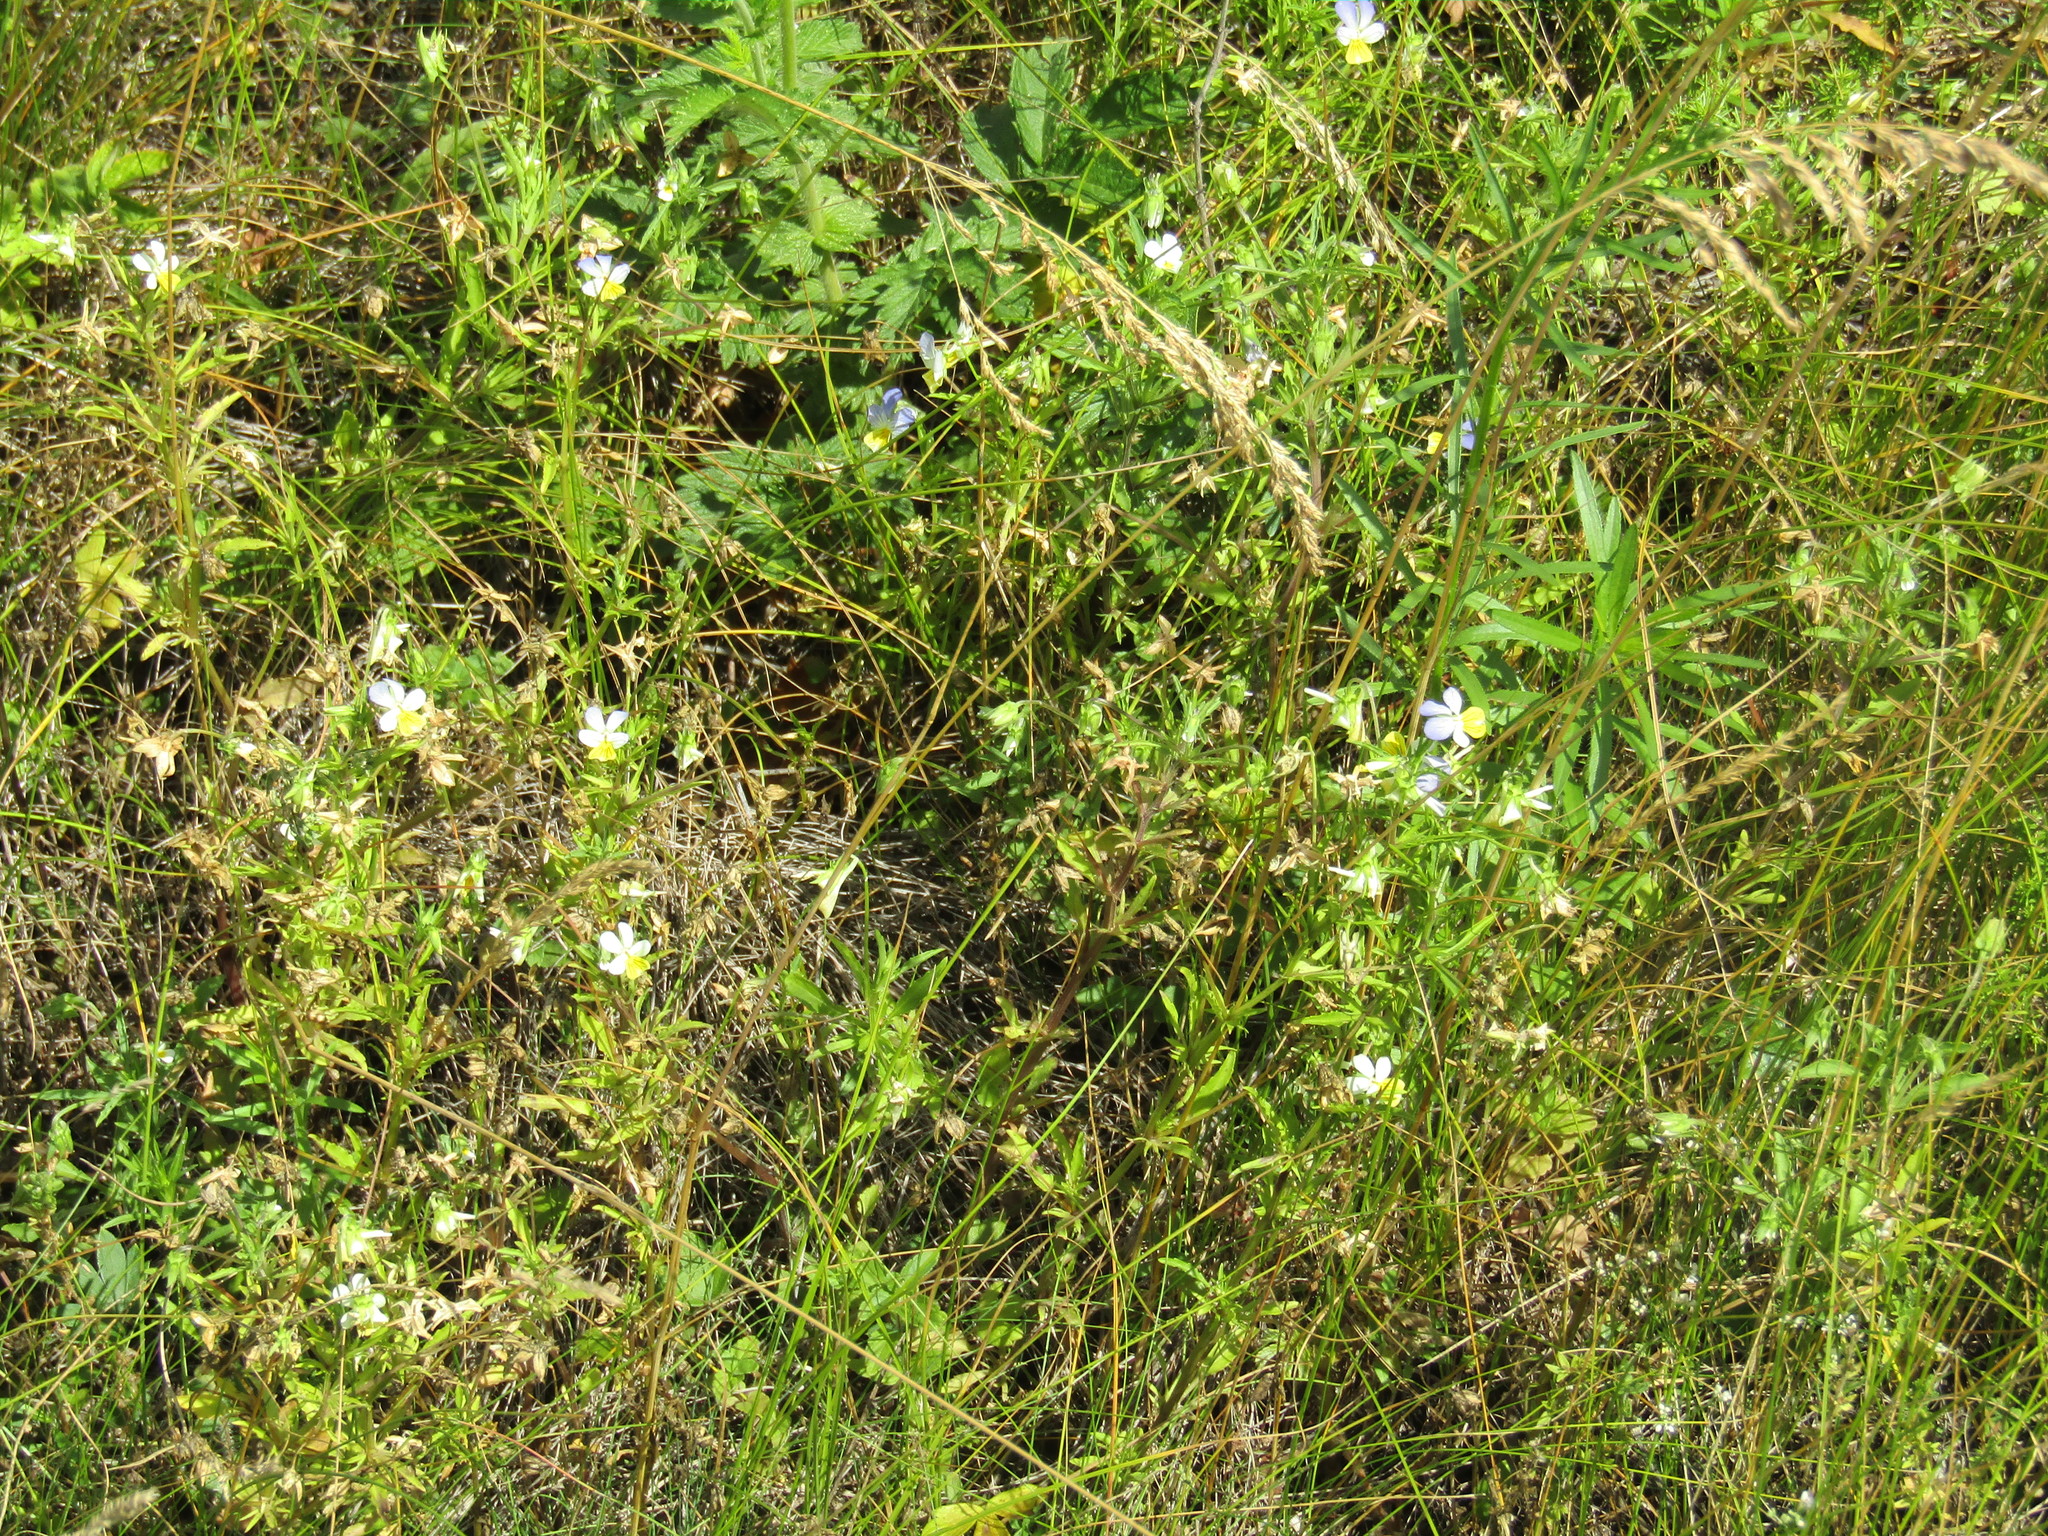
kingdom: Plantae
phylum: Tracheophyta
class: Magnoliopsida
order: Malpighiales
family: Violaceae
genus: Viola
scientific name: Viola tricolor
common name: Pansy
